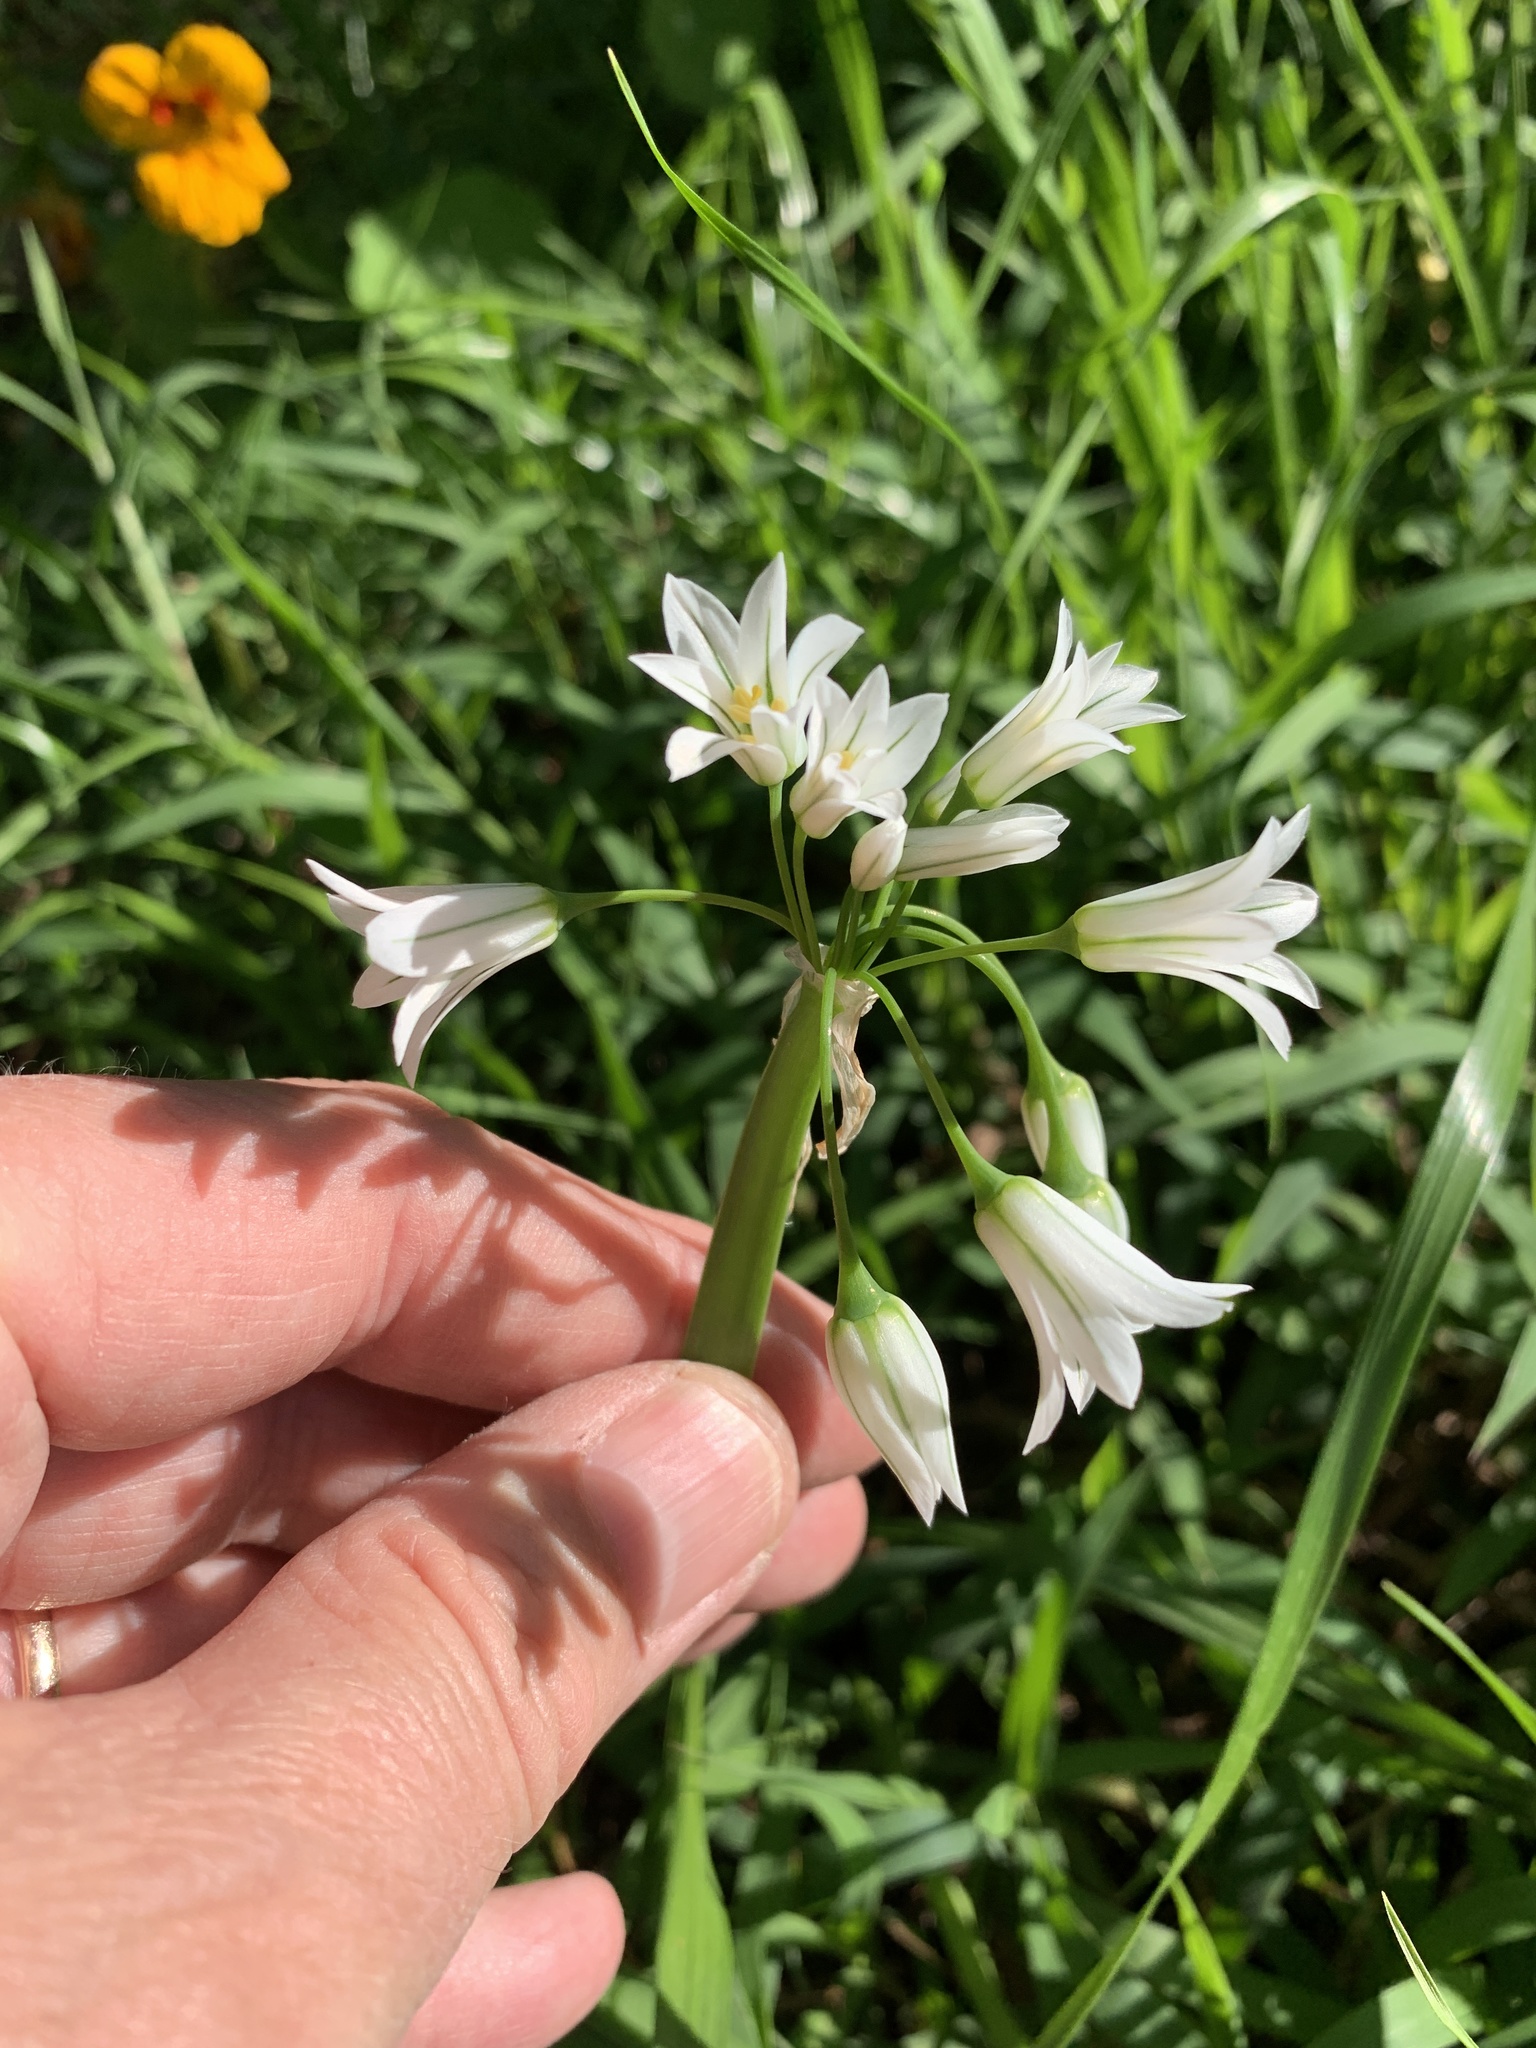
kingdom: Plantae
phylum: Tracheophyta
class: Liliopsida
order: Asparagales
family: Amaryllidaceae
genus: Allium
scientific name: Allium triquetrum
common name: Three-cornered garlic
